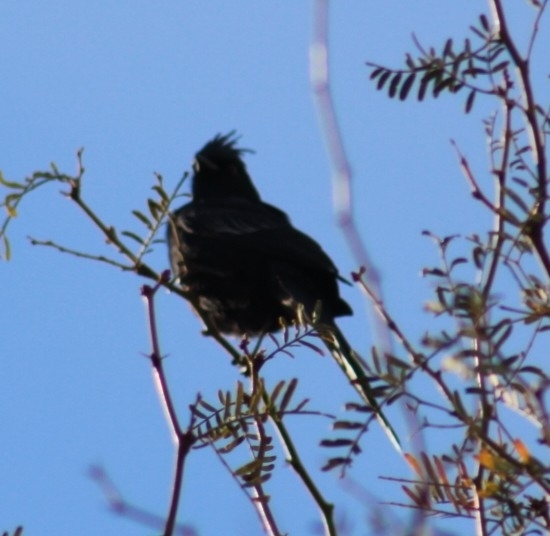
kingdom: Animalia
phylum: Chordata
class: Aves
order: Passeriformes
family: Ptilogonatidae
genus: Phainopepla
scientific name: Phainopepla nitens
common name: Phainopepla
